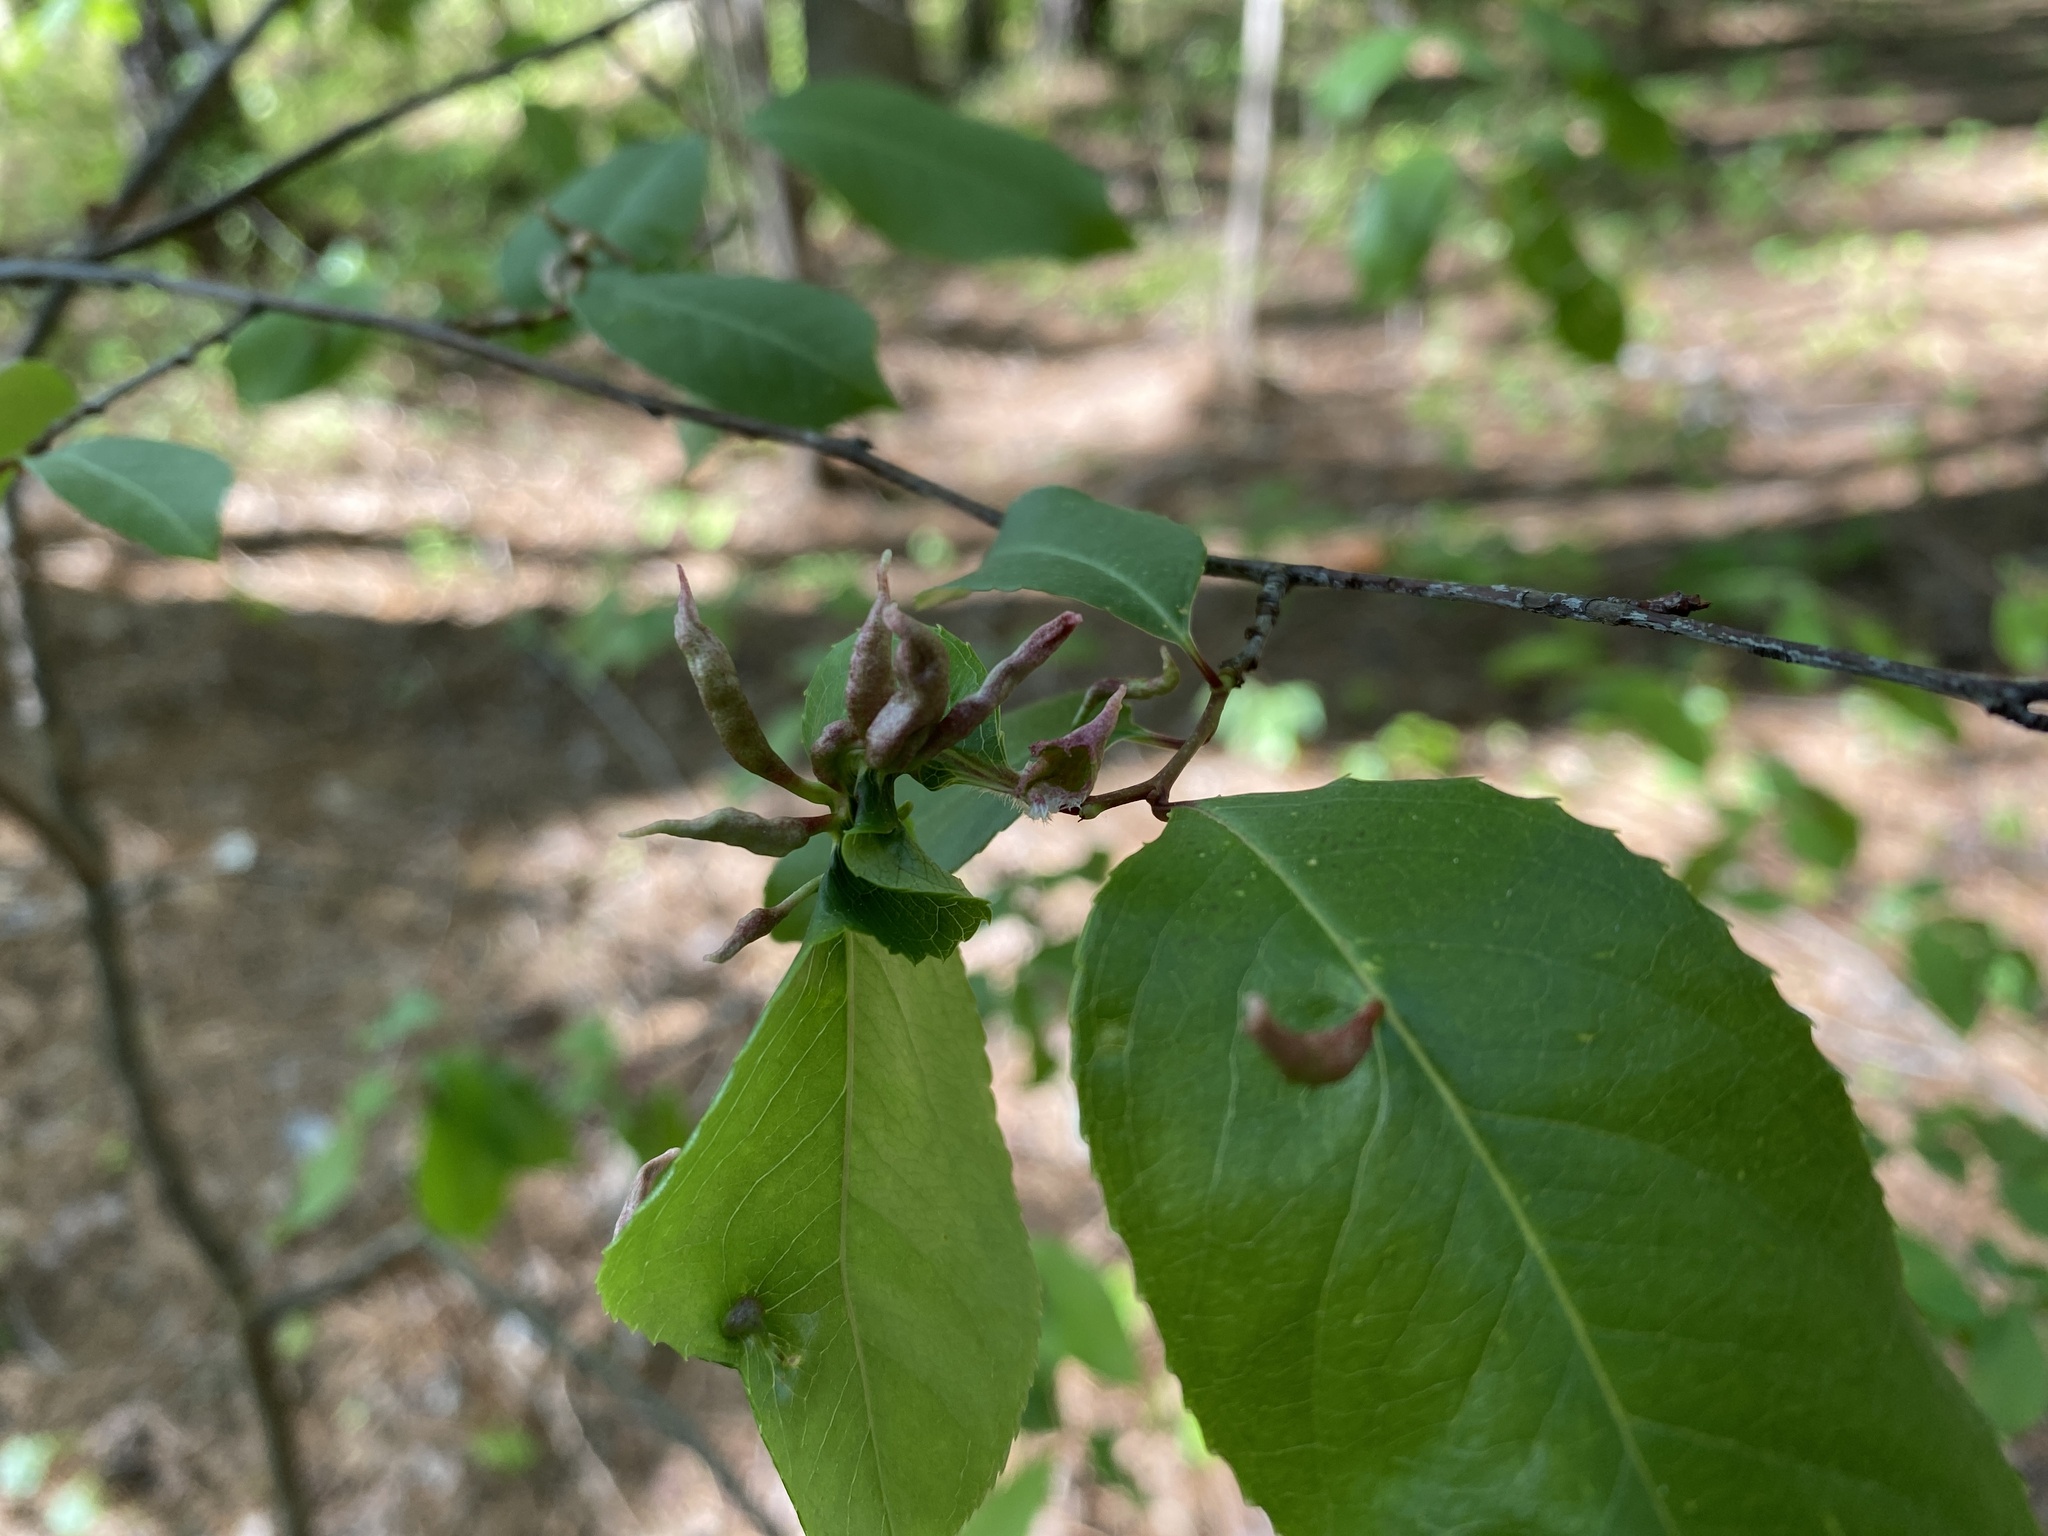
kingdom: Animalia
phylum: Arthropoda
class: Arachnida
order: Trombidiformes
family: Eriophyidae
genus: Eriophyes
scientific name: Eriophyes
